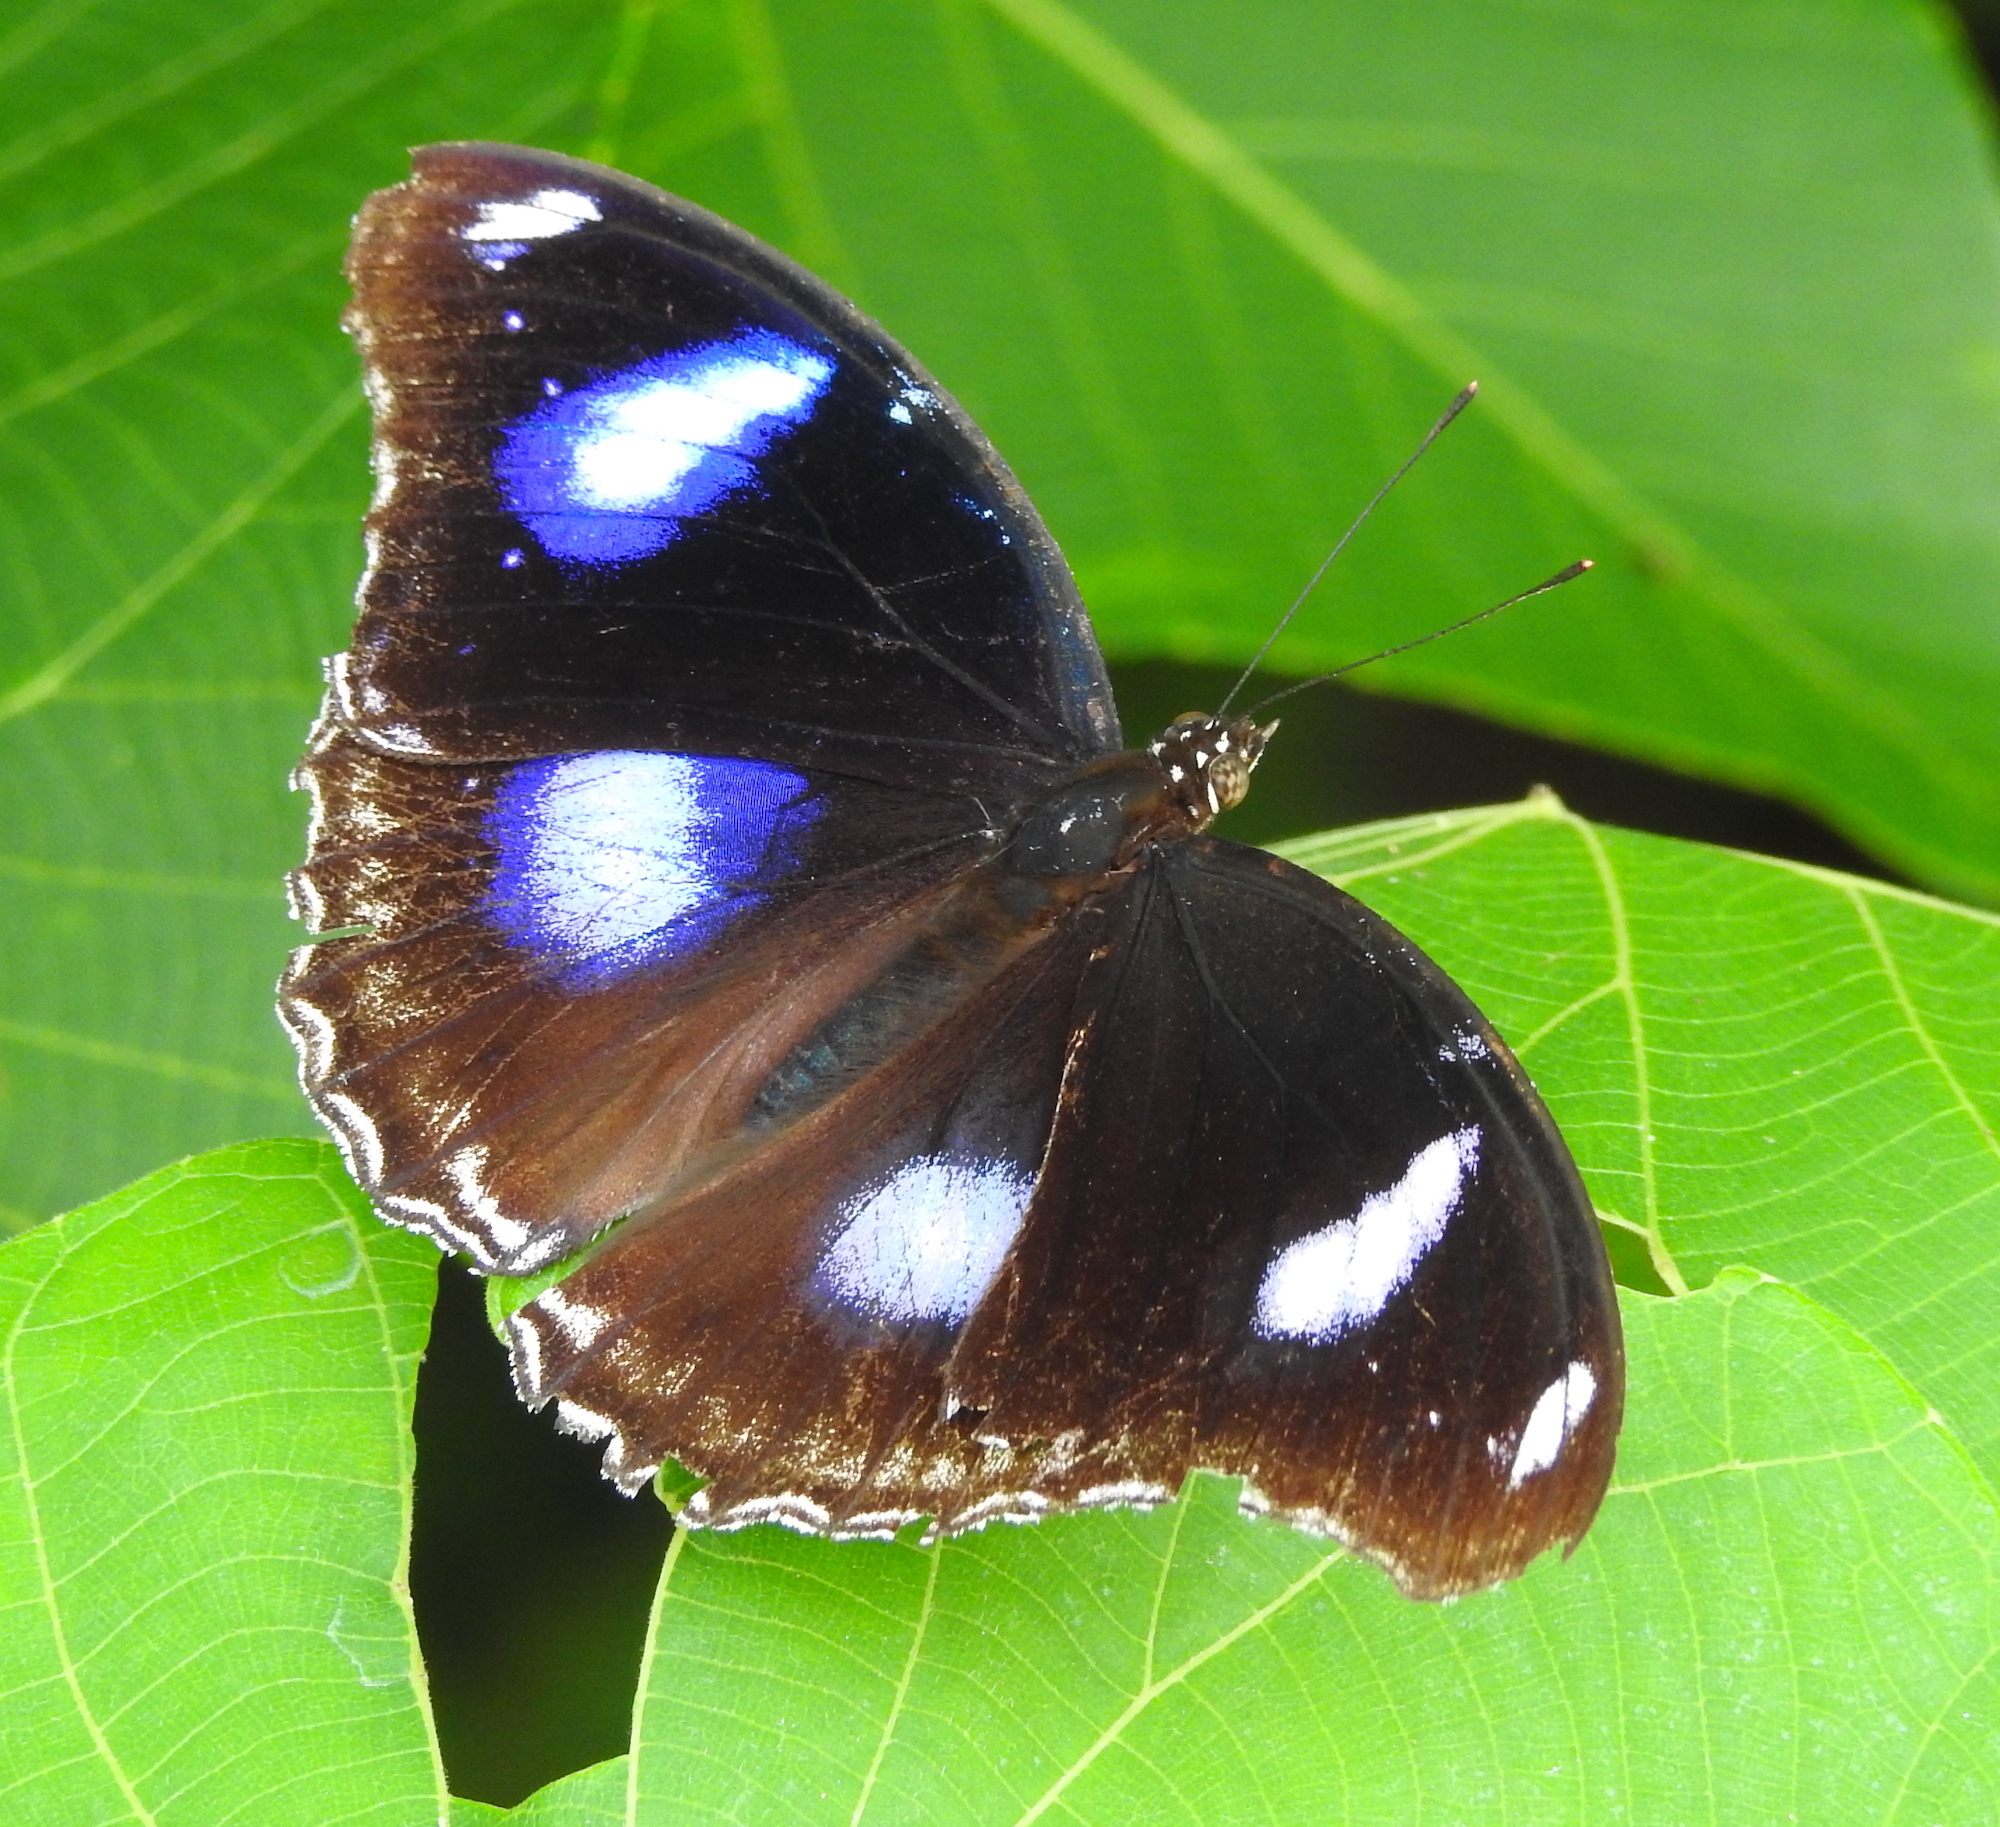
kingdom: Animalia
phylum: Arthropoda
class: Insecta
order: Lepidoptera
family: Nymphalidae
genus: Hypolimnas
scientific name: Hypolimnas bolina
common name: Great eggfly
